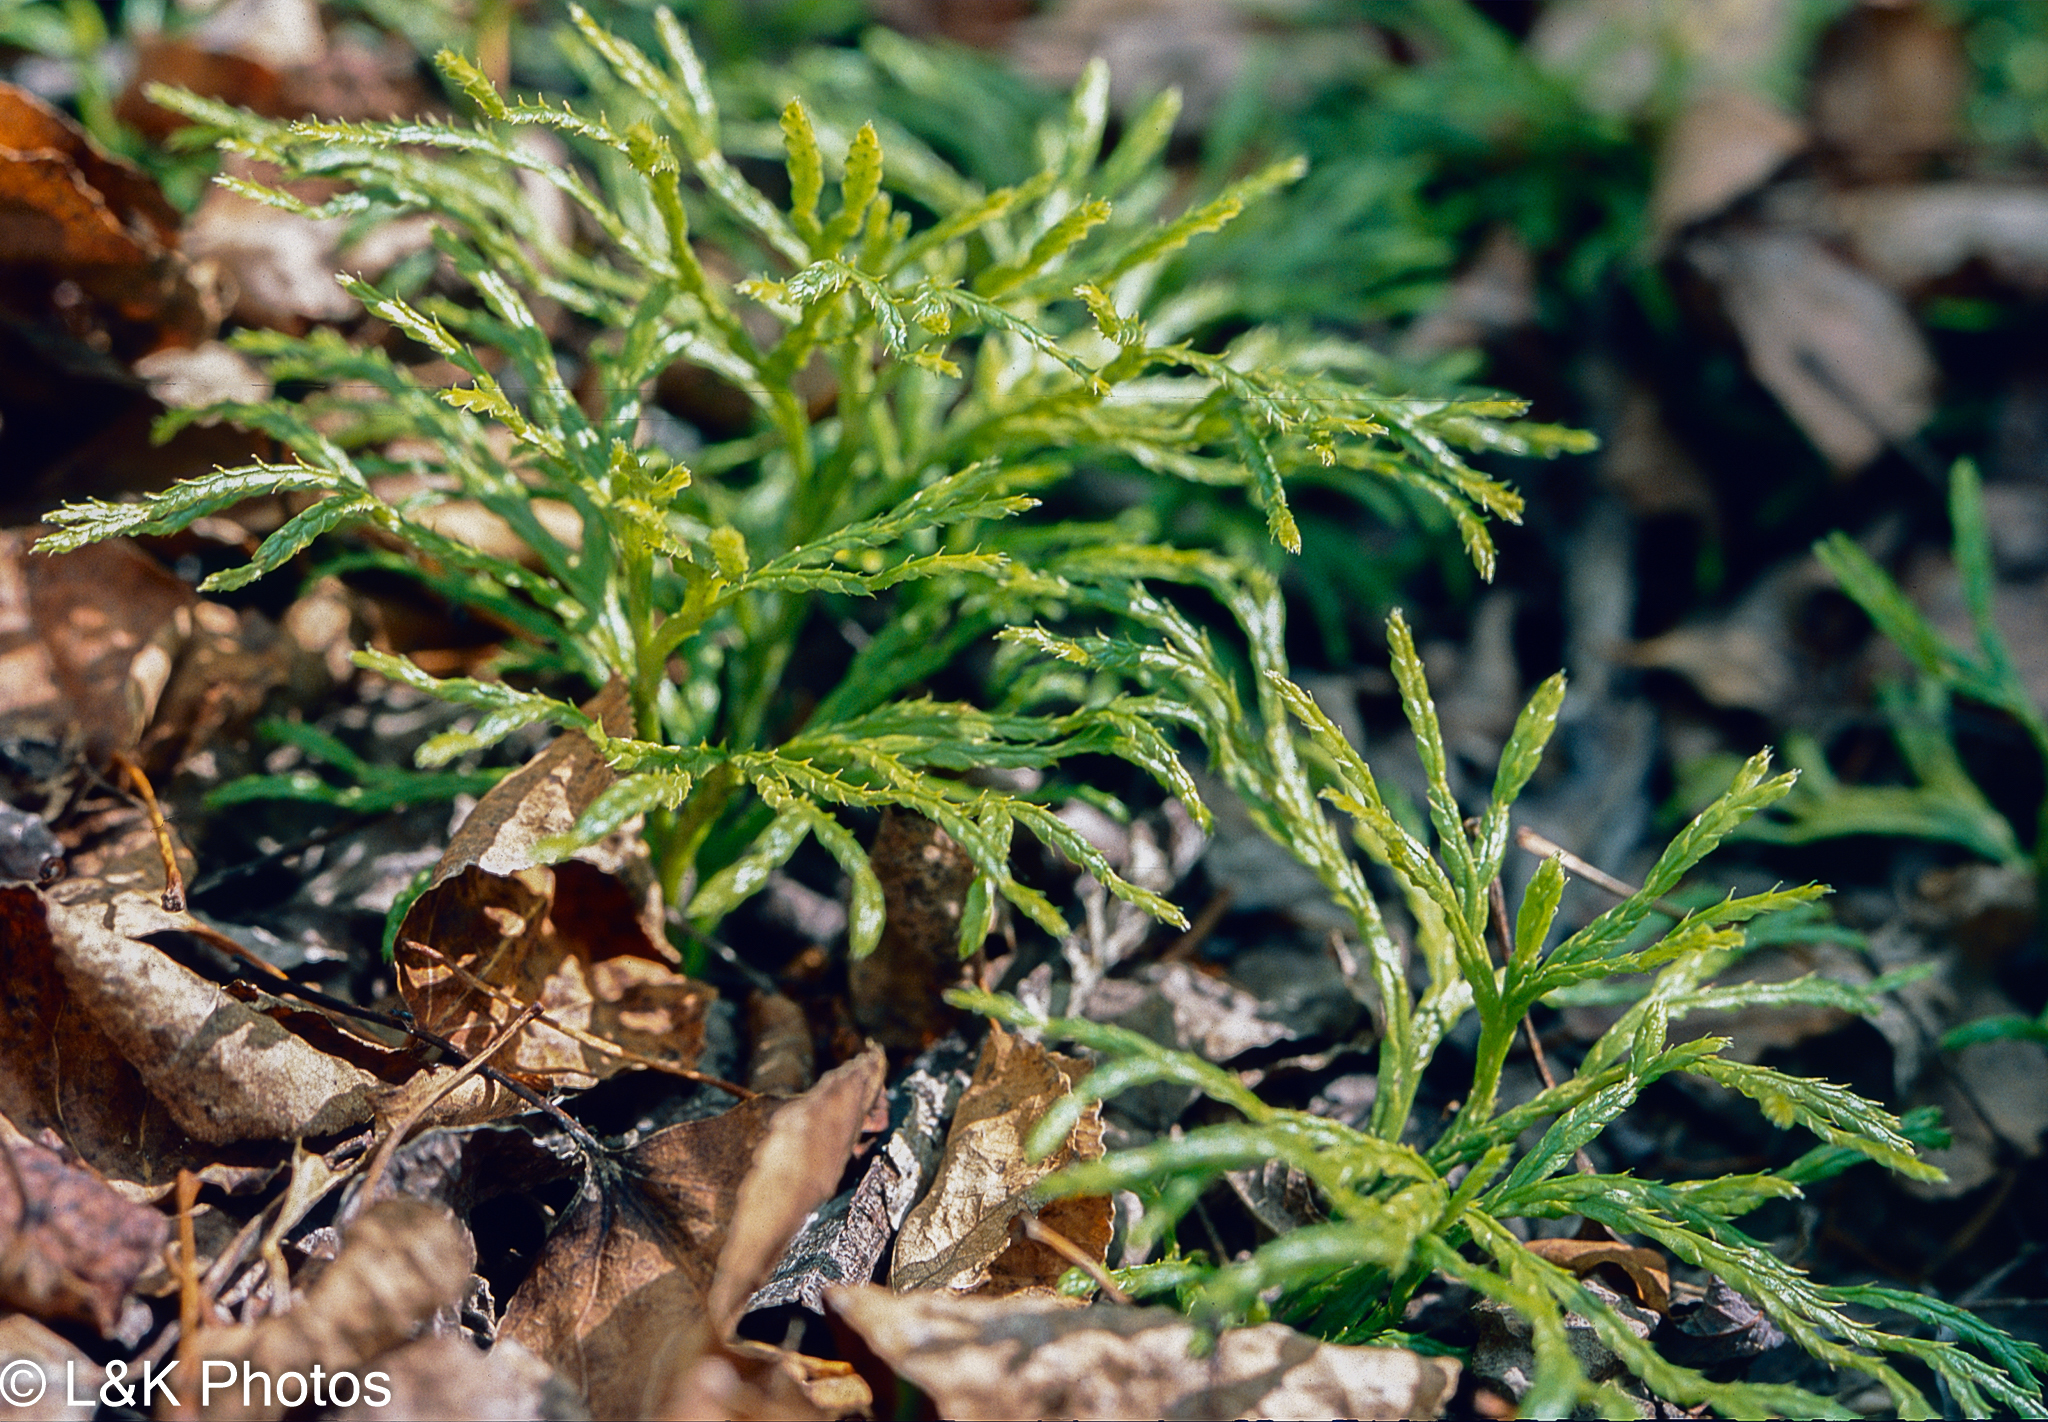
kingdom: Plantae
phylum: Tracheophyta
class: Lycopodiopsida
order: Lycopodiales
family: Lycopodiaceae
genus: Diphasiastrum
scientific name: Diphasiastrum complanatum
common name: Northern running-pine
